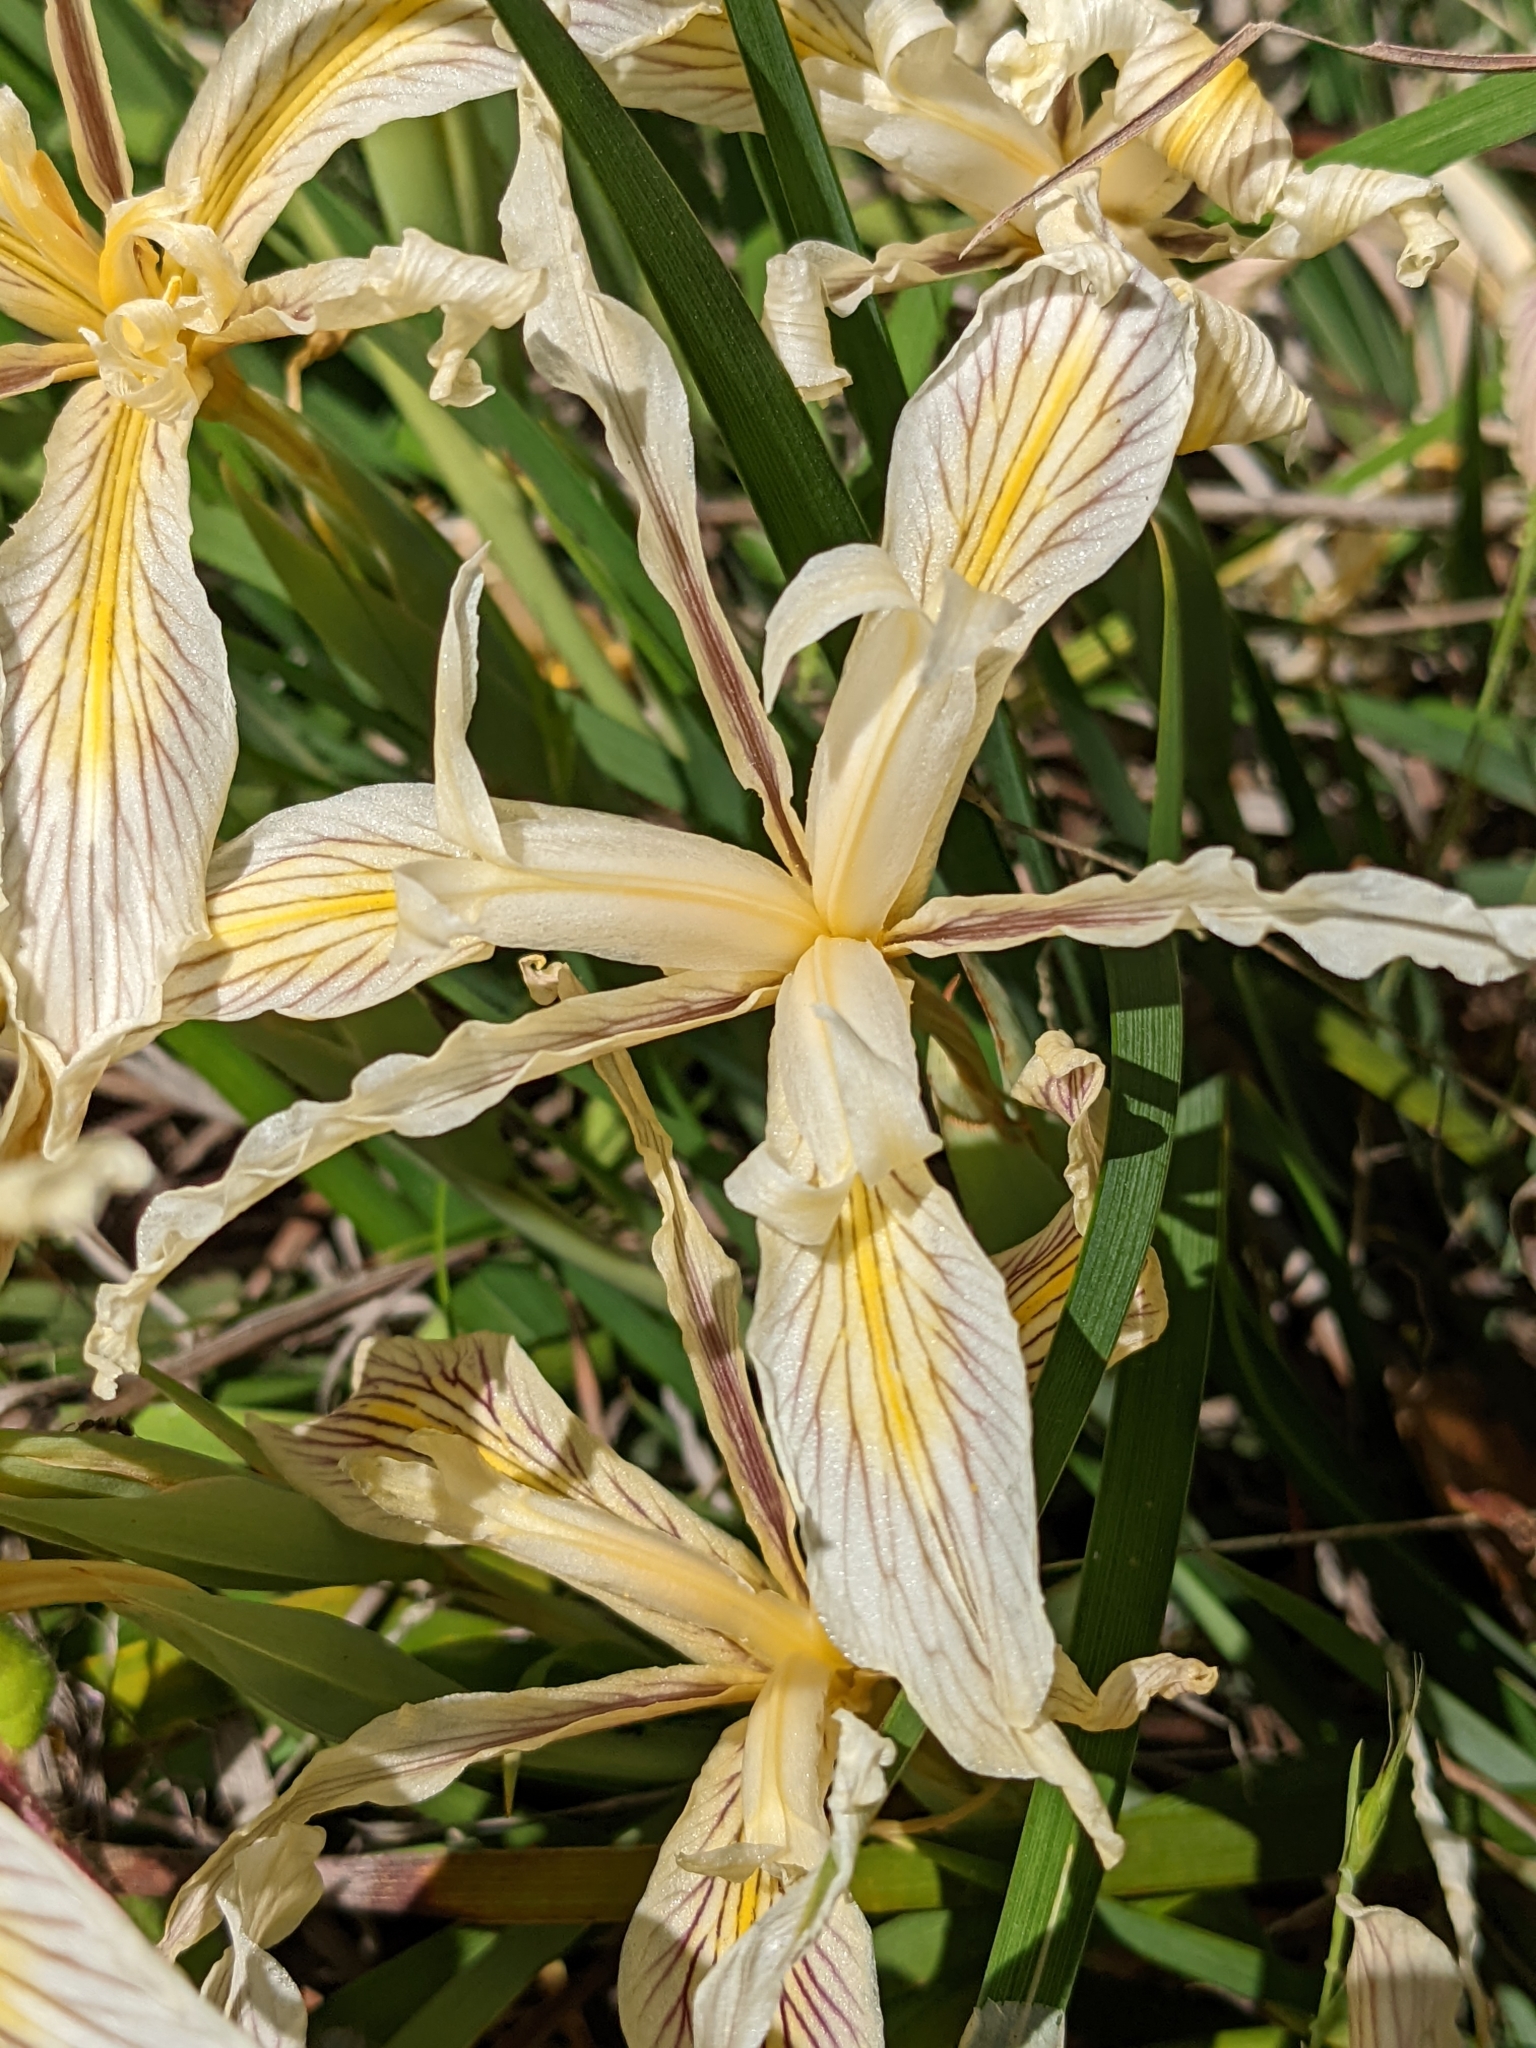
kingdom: Plantae
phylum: Tracheophyta
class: Liliopsida
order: Asparagales
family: Iridaceae
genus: Iris
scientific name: Iris macrosiphon
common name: Ground iris
